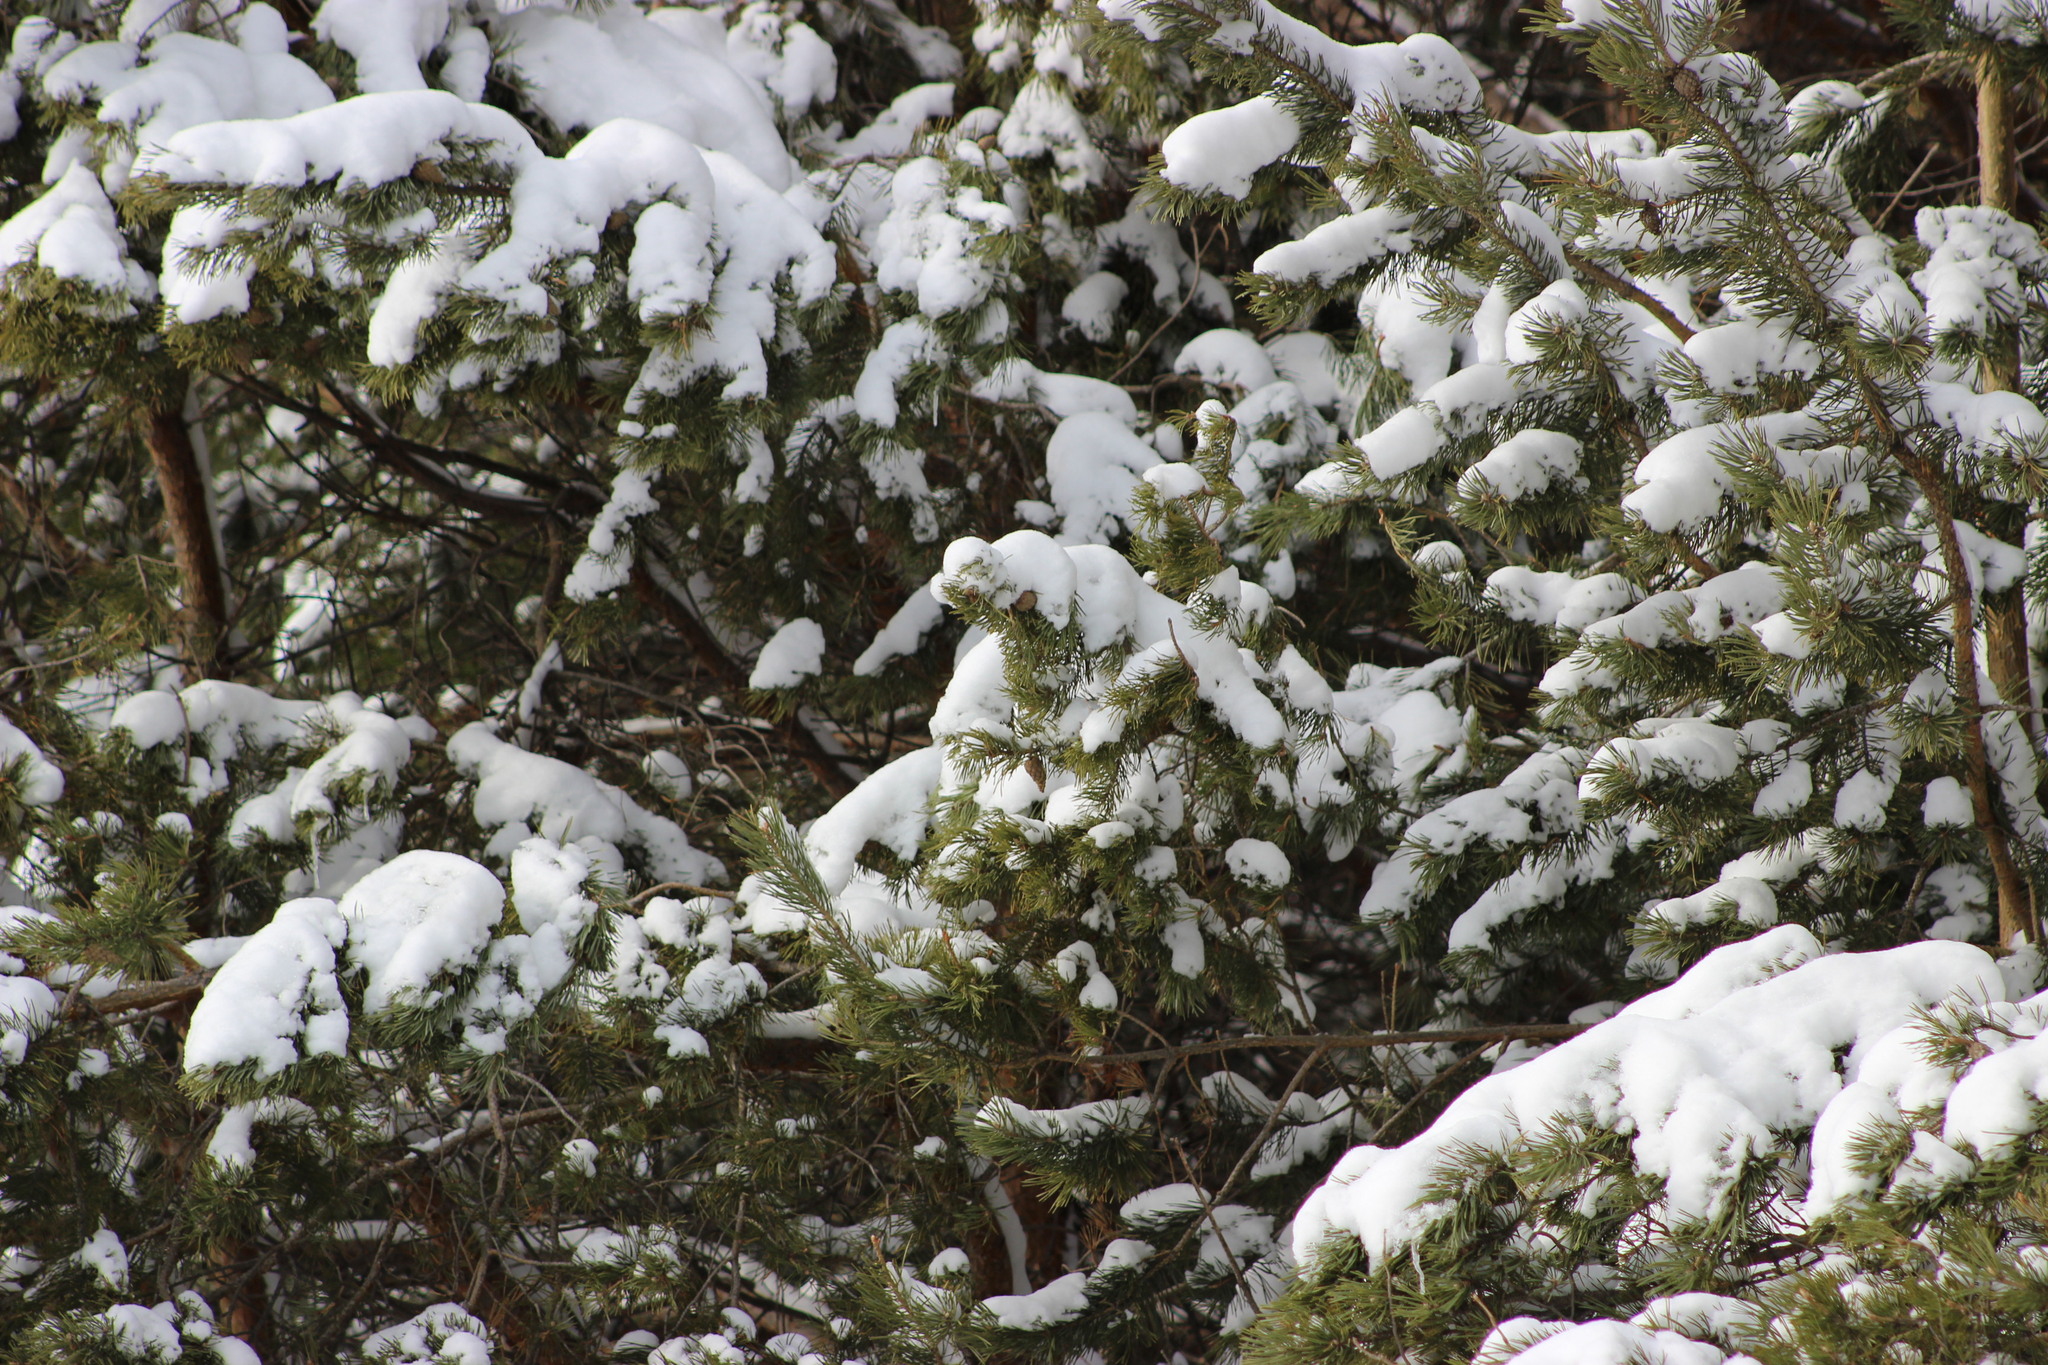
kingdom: Plantae
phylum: Tracheophyta
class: Pinopsida
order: Pinales
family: Pinaceae
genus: Pinus
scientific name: Pinus sylvestris
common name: Scots pine
